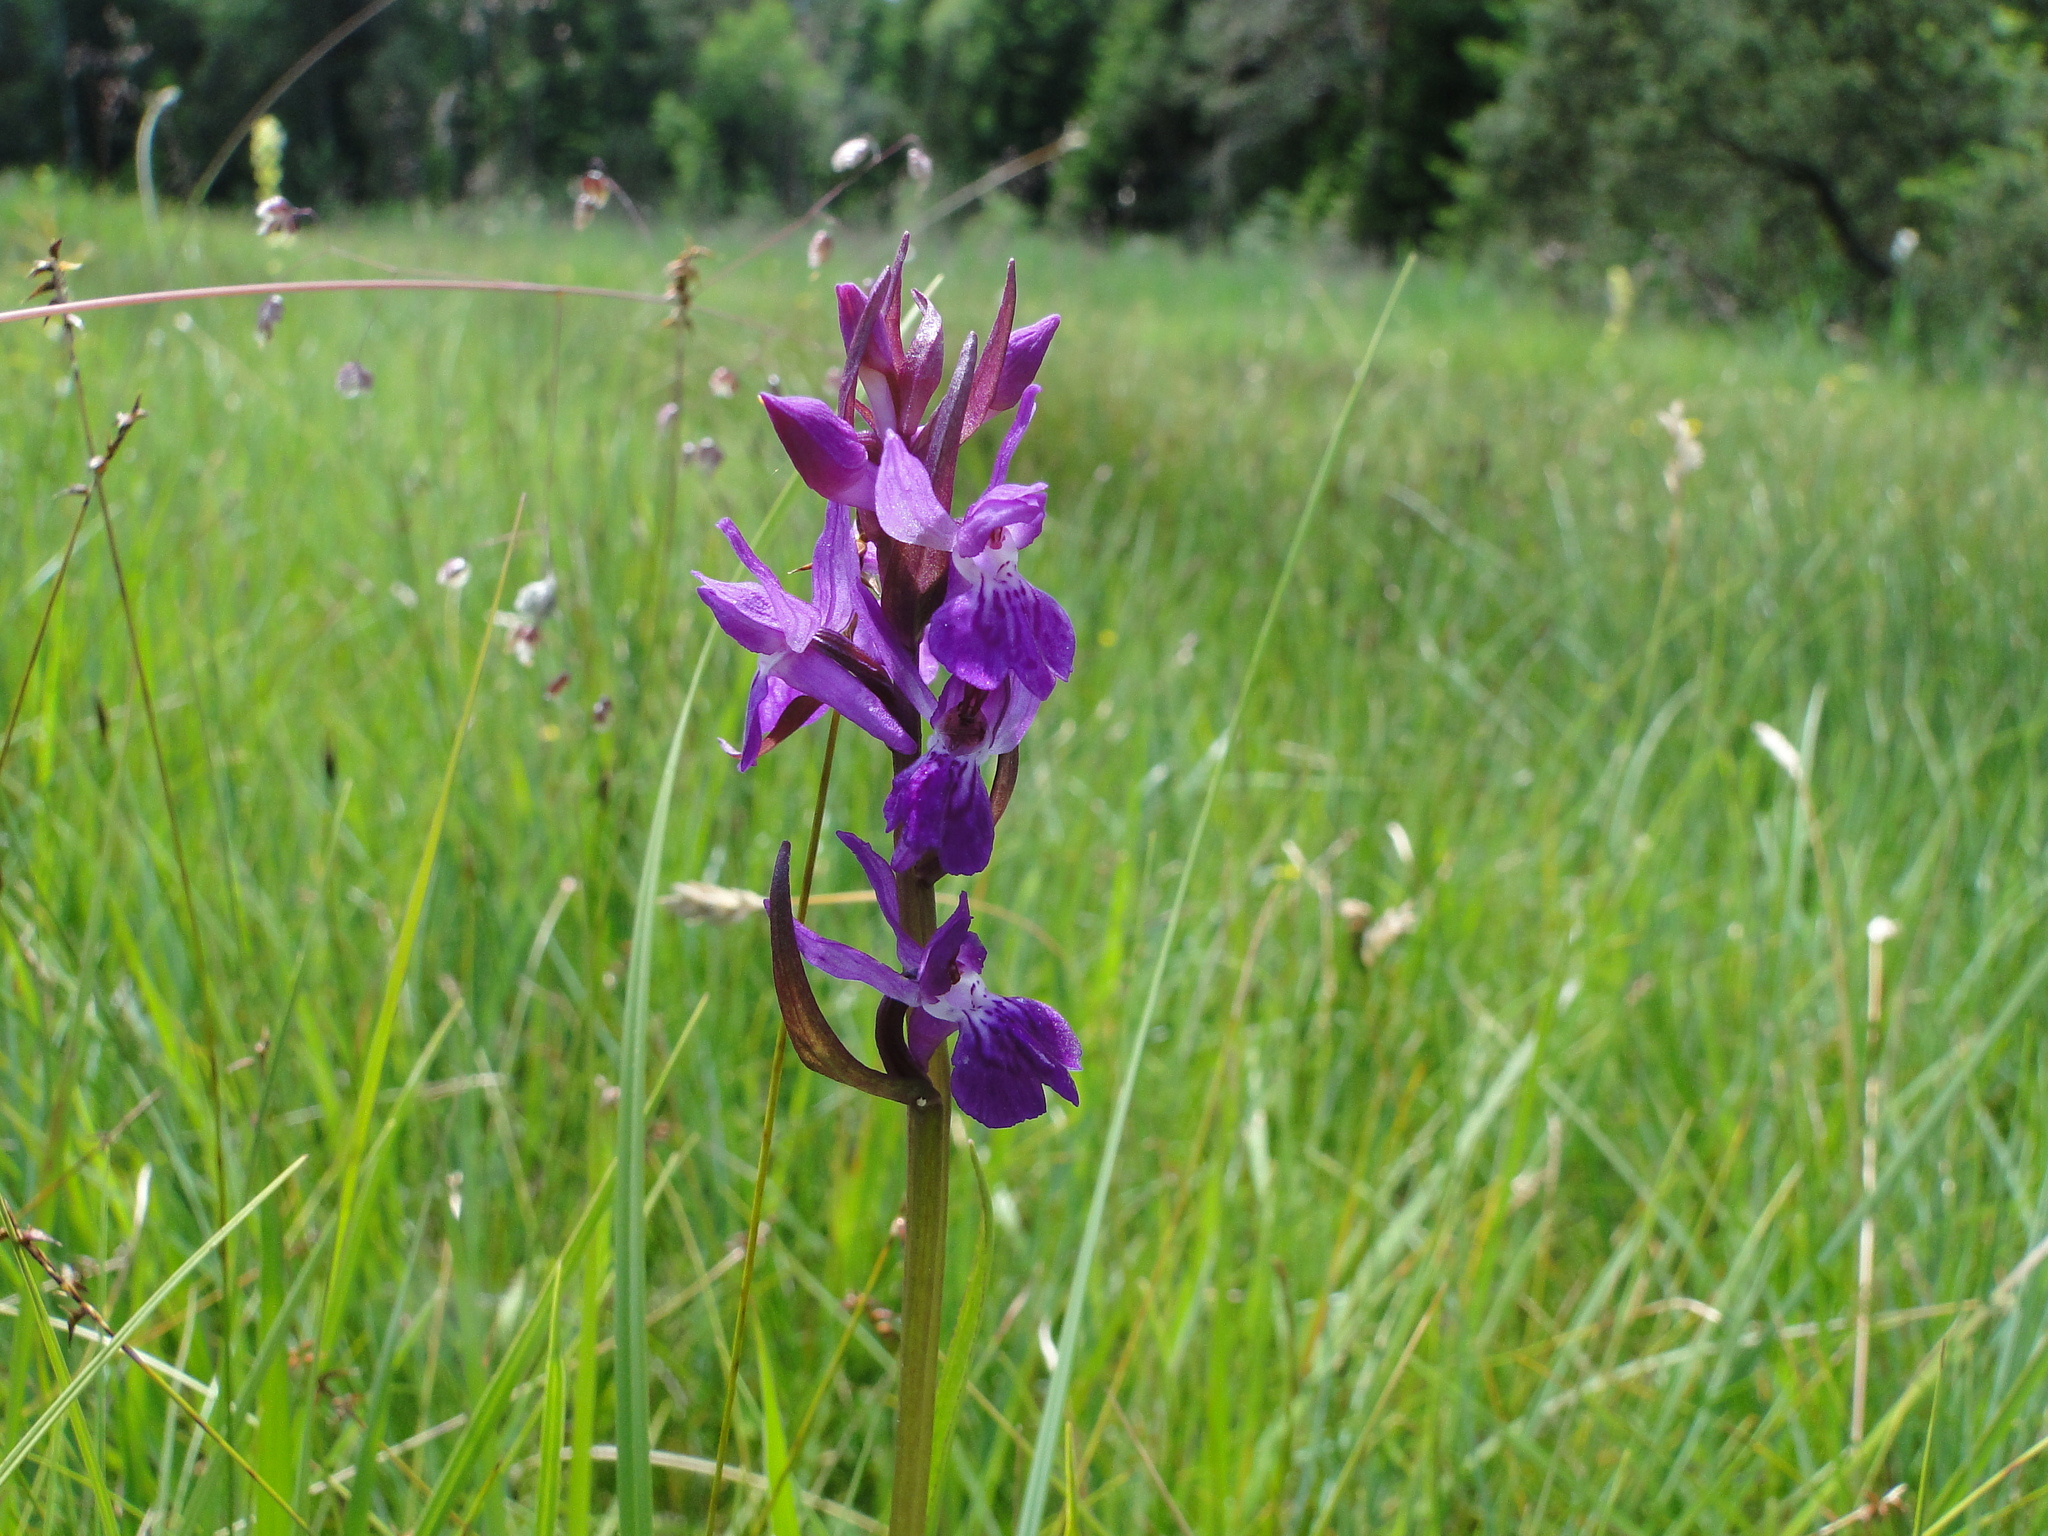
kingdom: Plantae
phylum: Tracheophyta
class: Liliopsida
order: Asparagales
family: Orchidaceae
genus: Dactylorhiza
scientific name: Dactylorhiza majalis
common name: Marsh orchid
